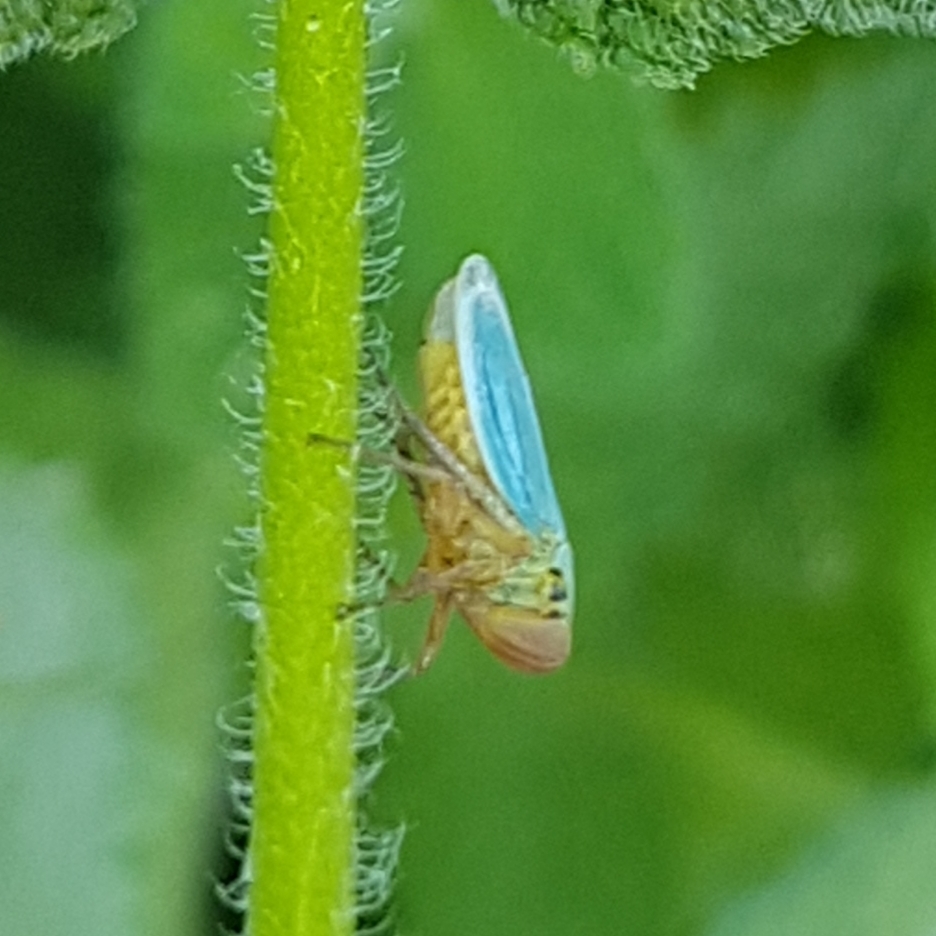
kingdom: Animalia
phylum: Arthropoda
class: Insecta
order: Hemiptera
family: Cicadellidae
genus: Cicadella
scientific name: Cicadella viridis
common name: Leafhopper
